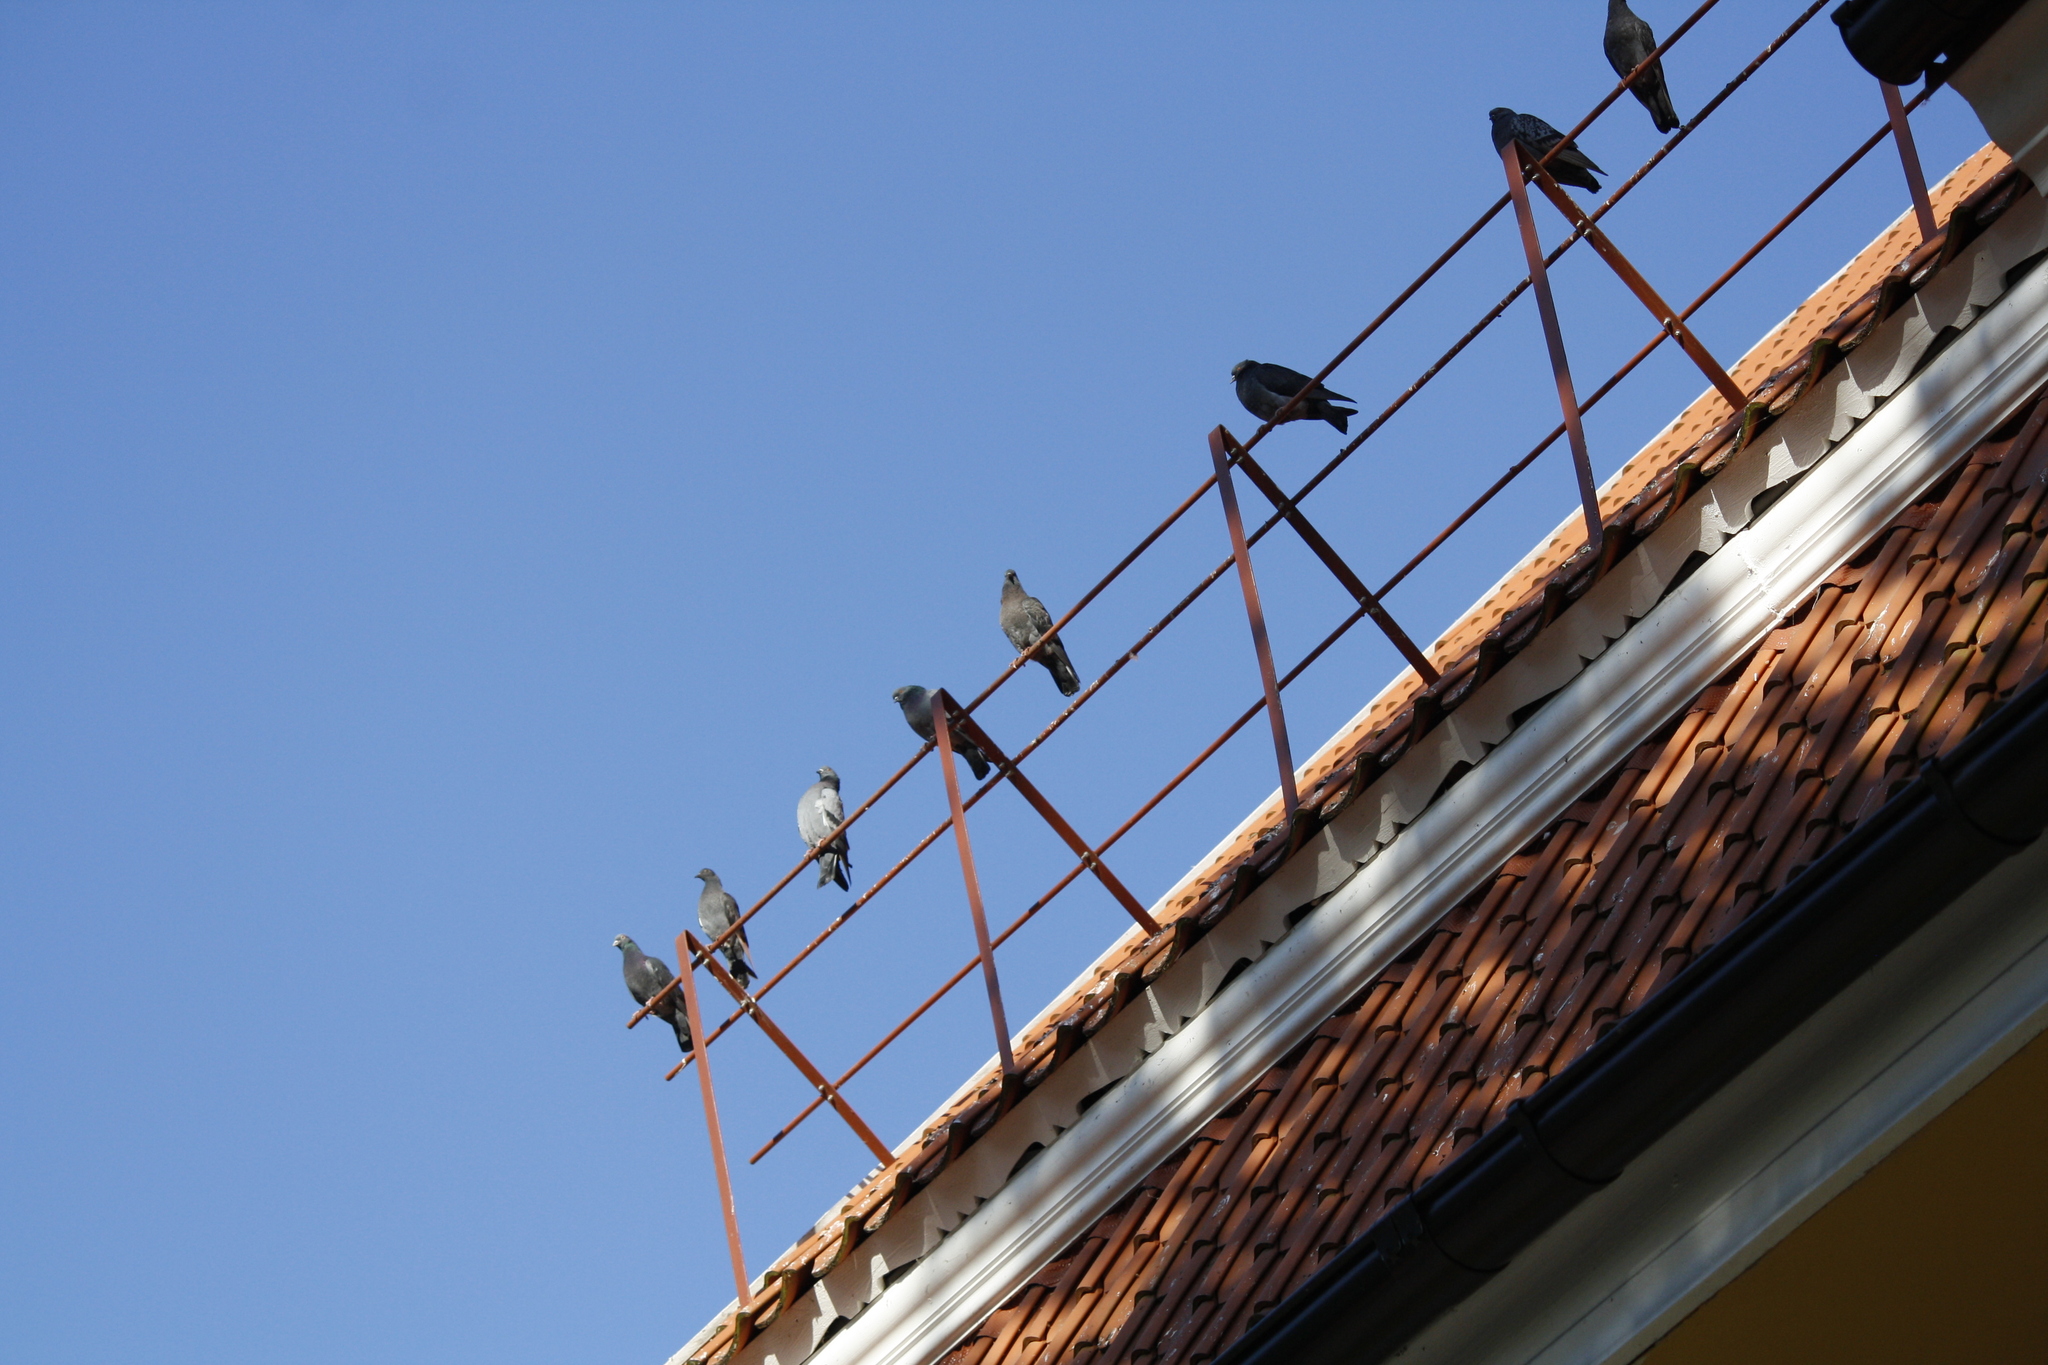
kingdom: Animalia
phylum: Chordata
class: Aves
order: Columbiformes
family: Columbidae
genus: Columba
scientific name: Columba livia
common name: Rock pigeon
